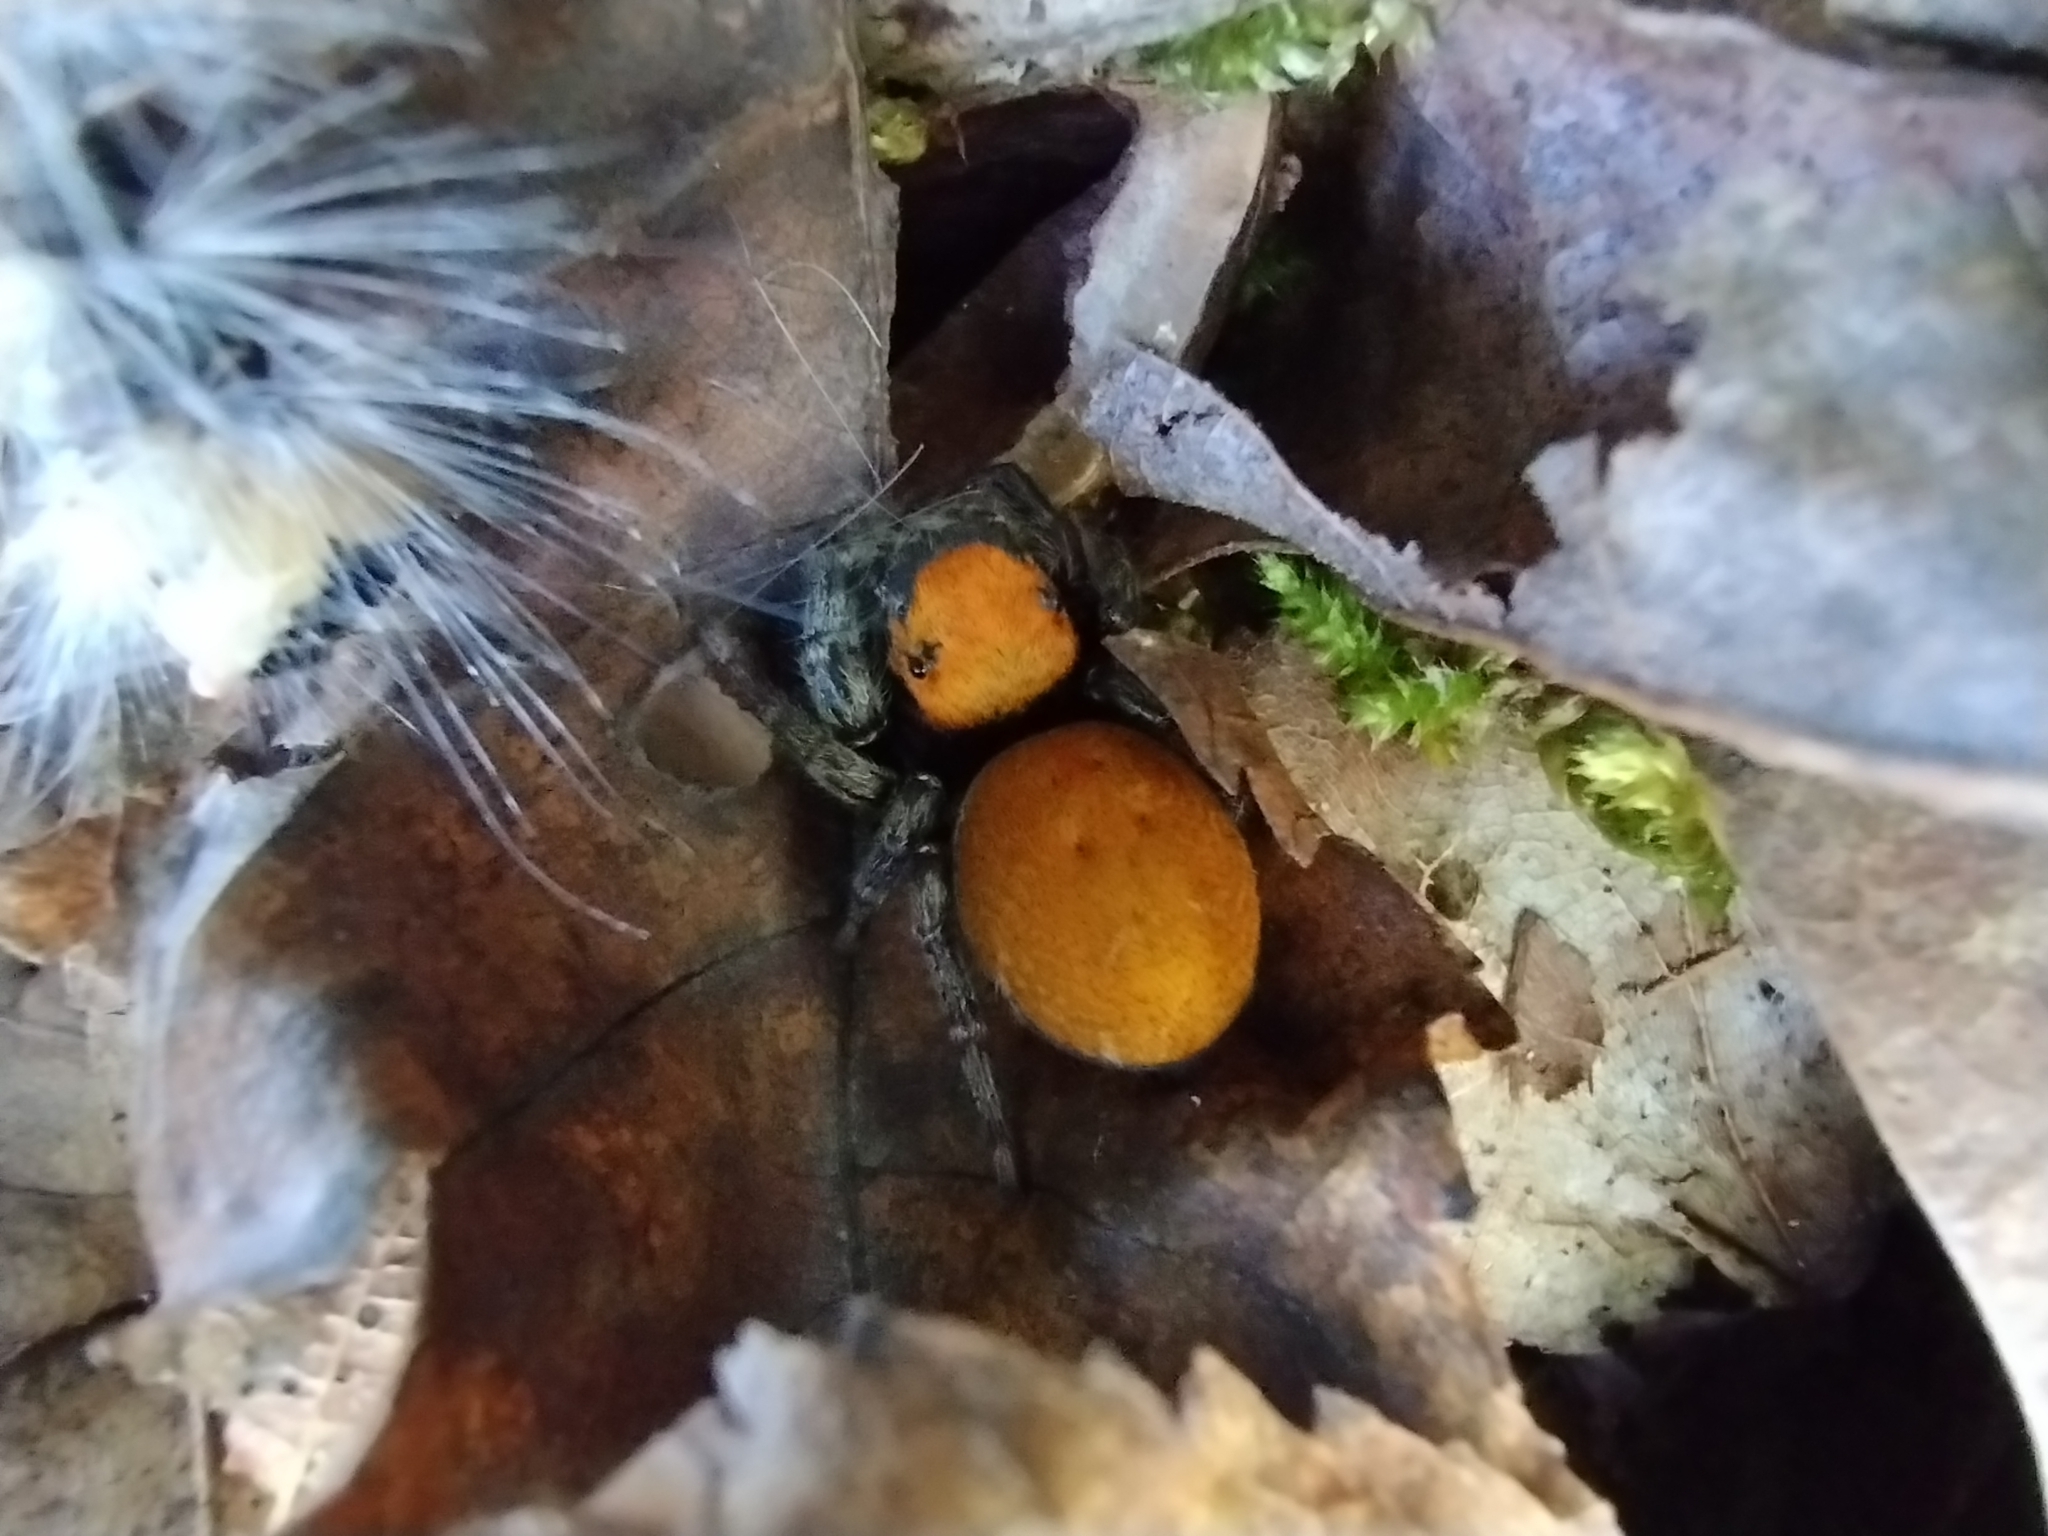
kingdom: Animalia
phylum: Arthropoda
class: Arachnida
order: Araneae
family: Salticidae
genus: Phidippus
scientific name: Phidippus whitmani
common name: Whitman's jumping spider
